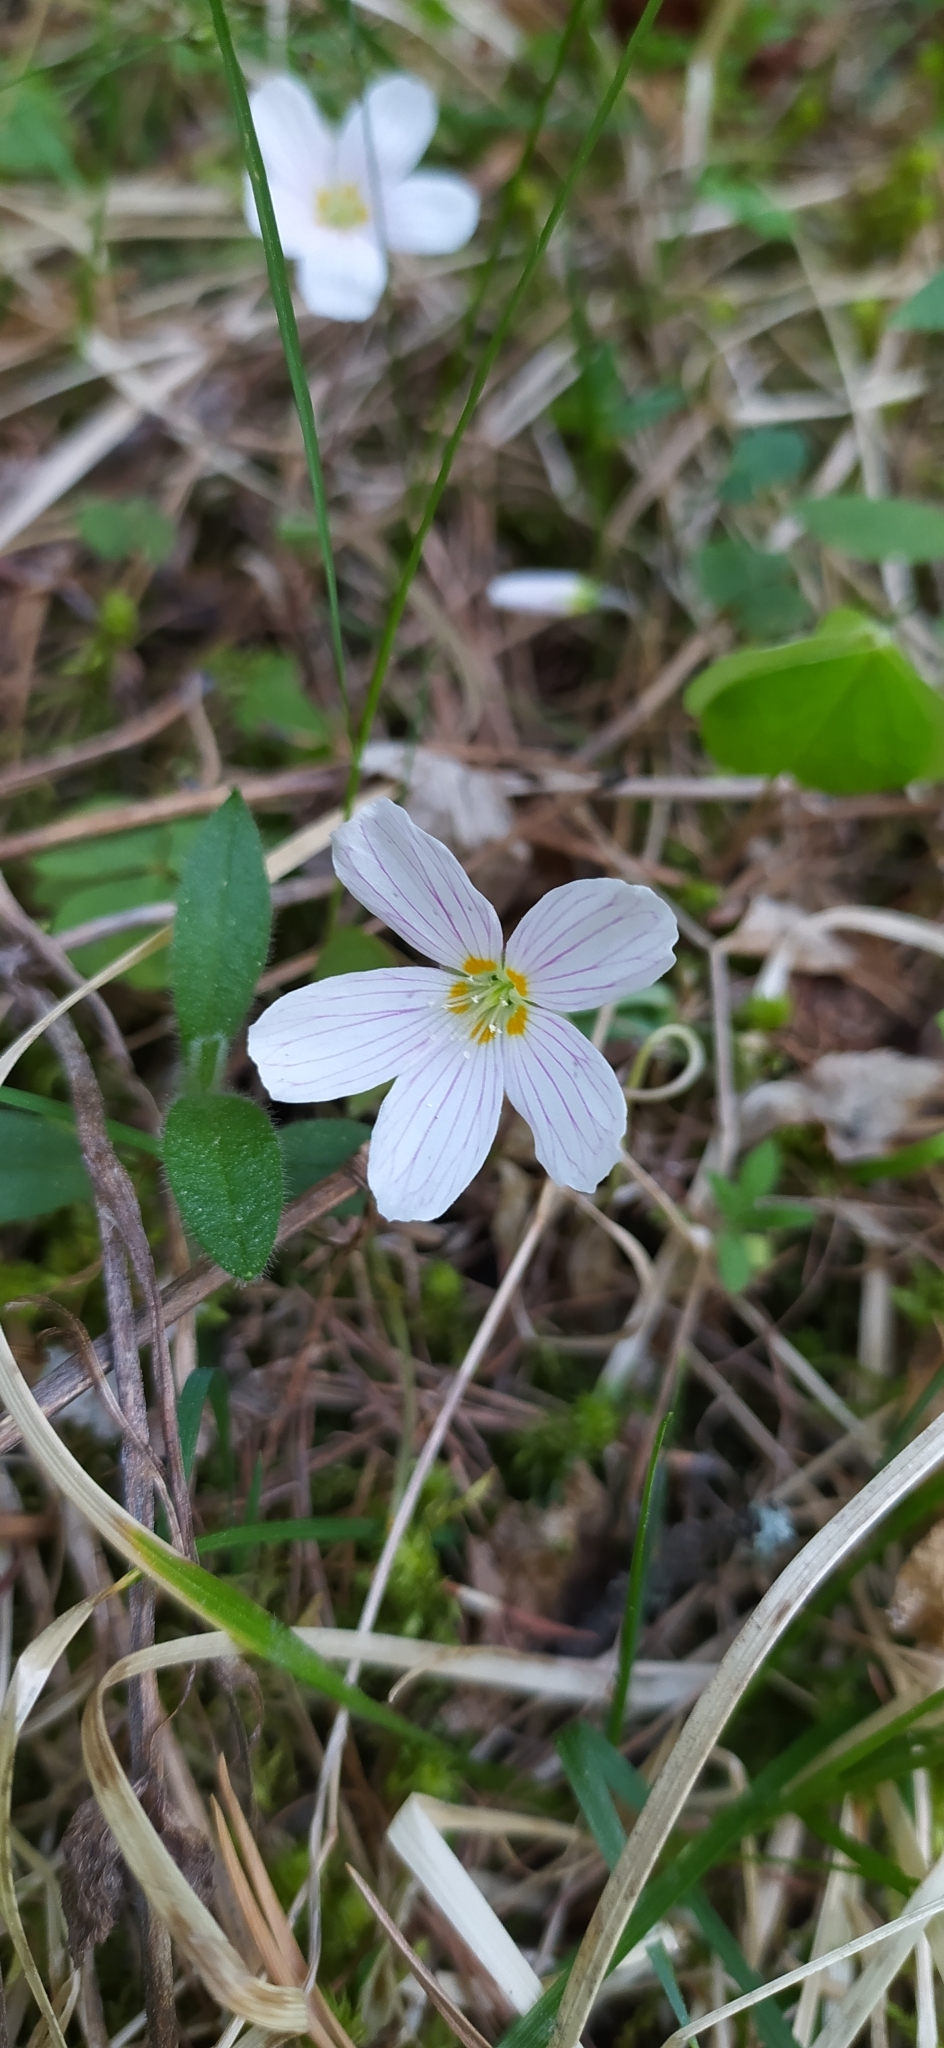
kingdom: Plantae
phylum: Tracheophyta
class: Magnoliopsida
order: Oxalidales
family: Oxalidaceae
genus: Oxalis
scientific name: Oxalis acetosella
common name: Wood-sorrel
